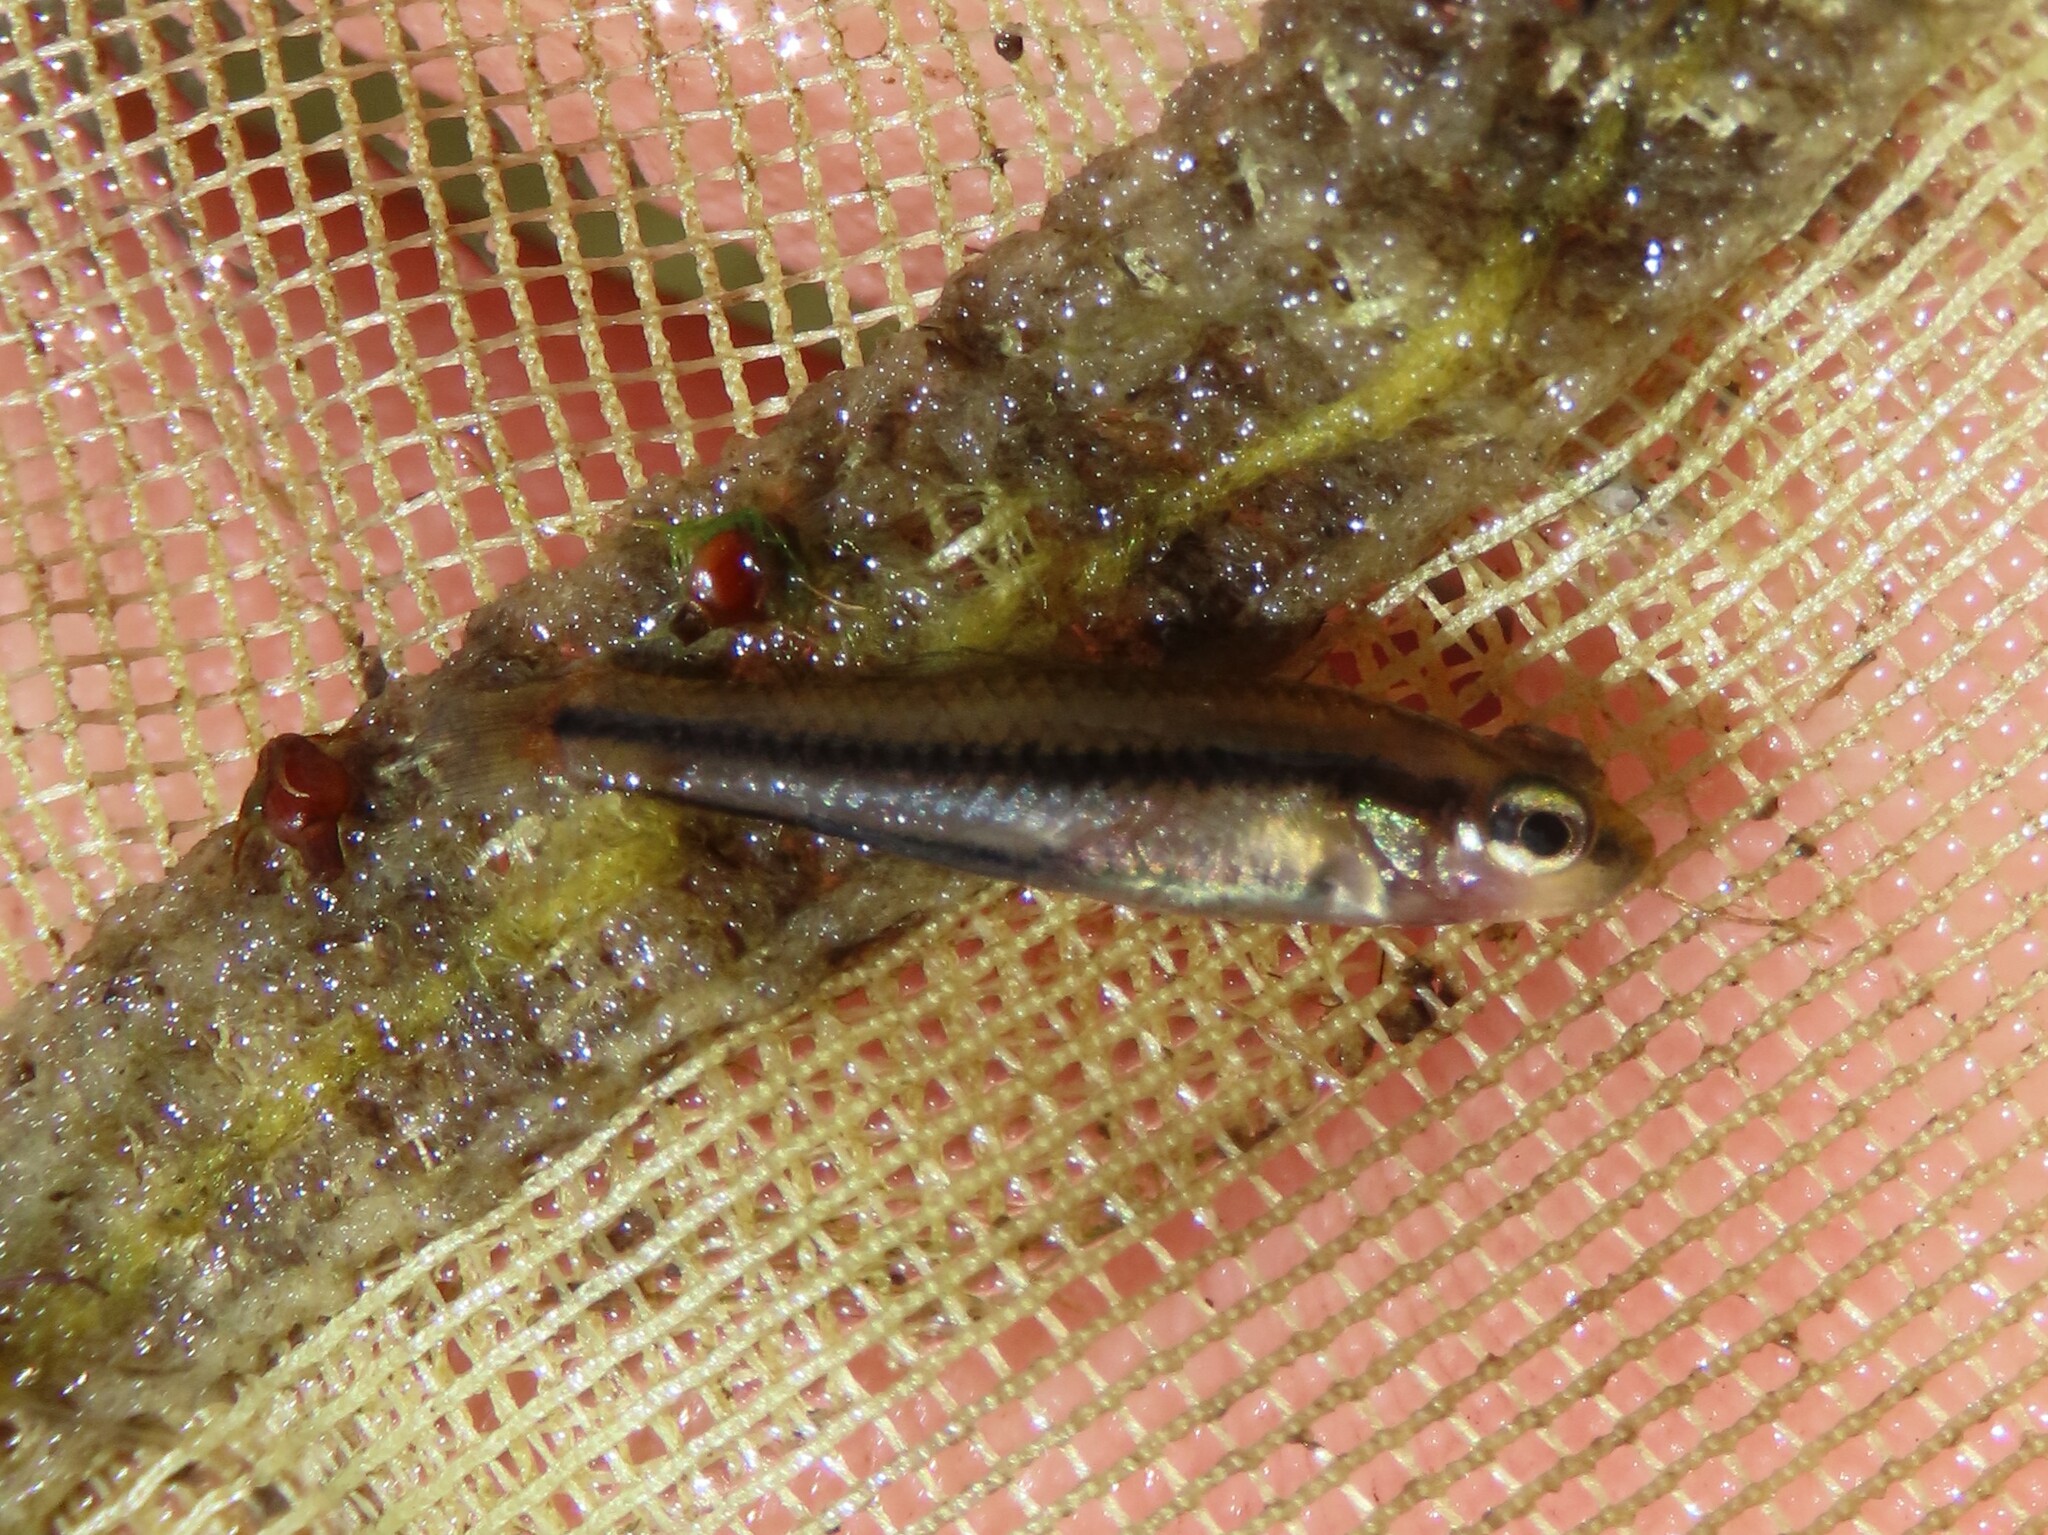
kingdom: Animalia
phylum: Chordata
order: Cyprinodontiformes
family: Fundulidae
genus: Lucania
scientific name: Lucania goodei
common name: Bluefin killifish
